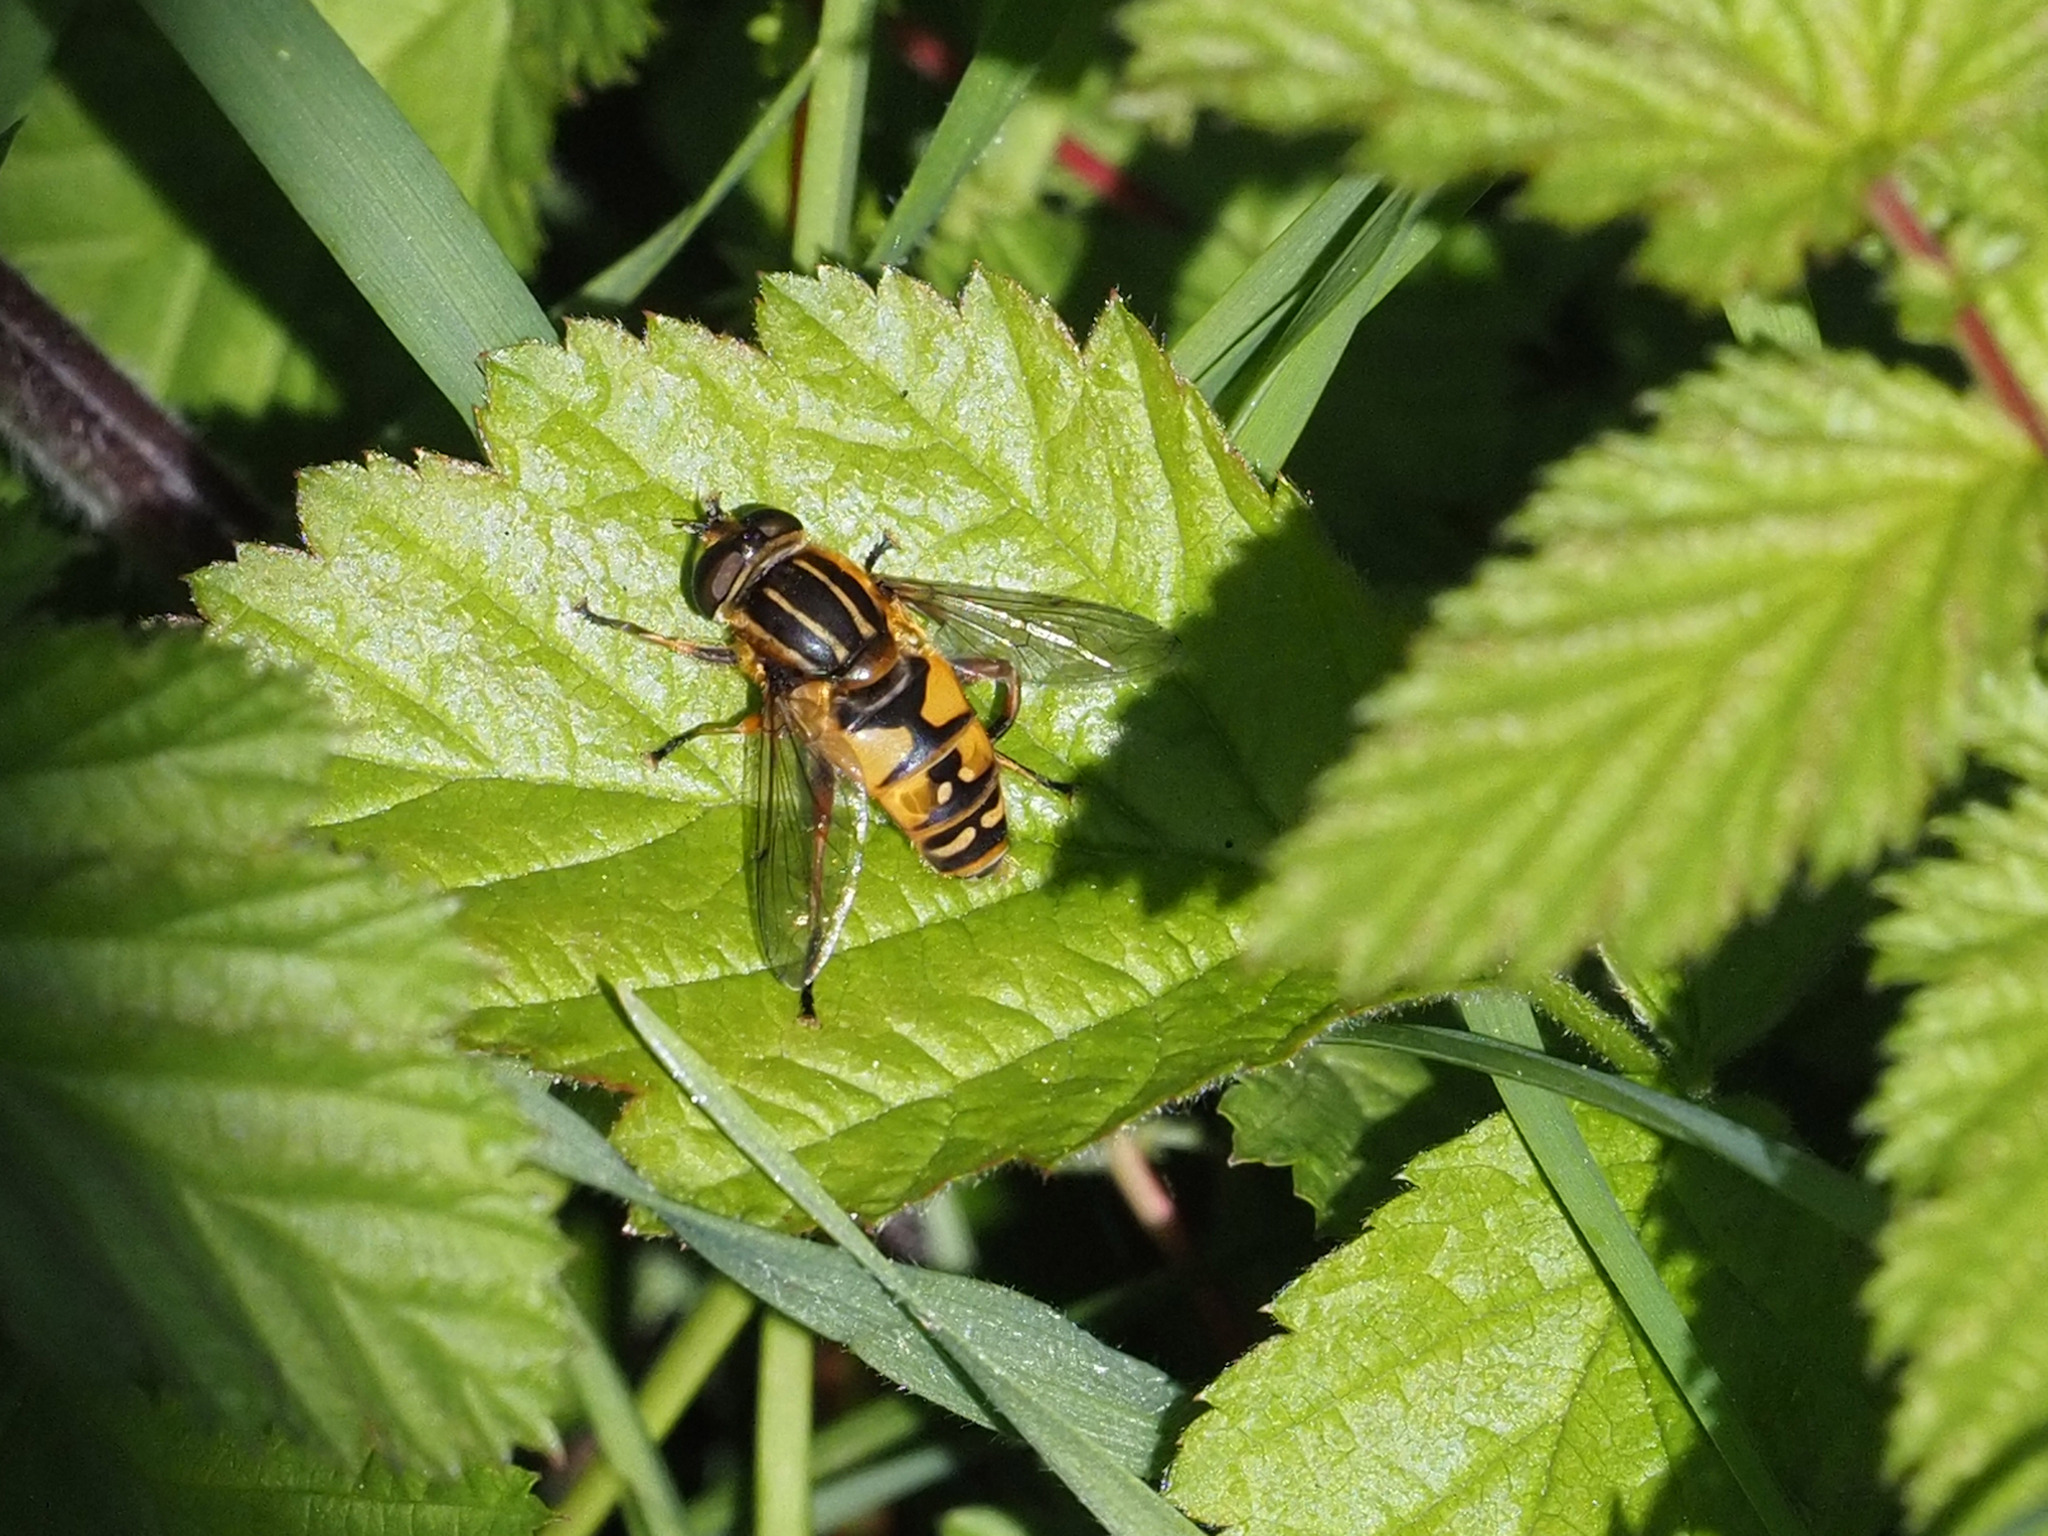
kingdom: Animalia
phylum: Arthropoda
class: Insecta
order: Diptera
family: Syrphidae
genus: Helophilus
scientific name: Helophilus pendulus
